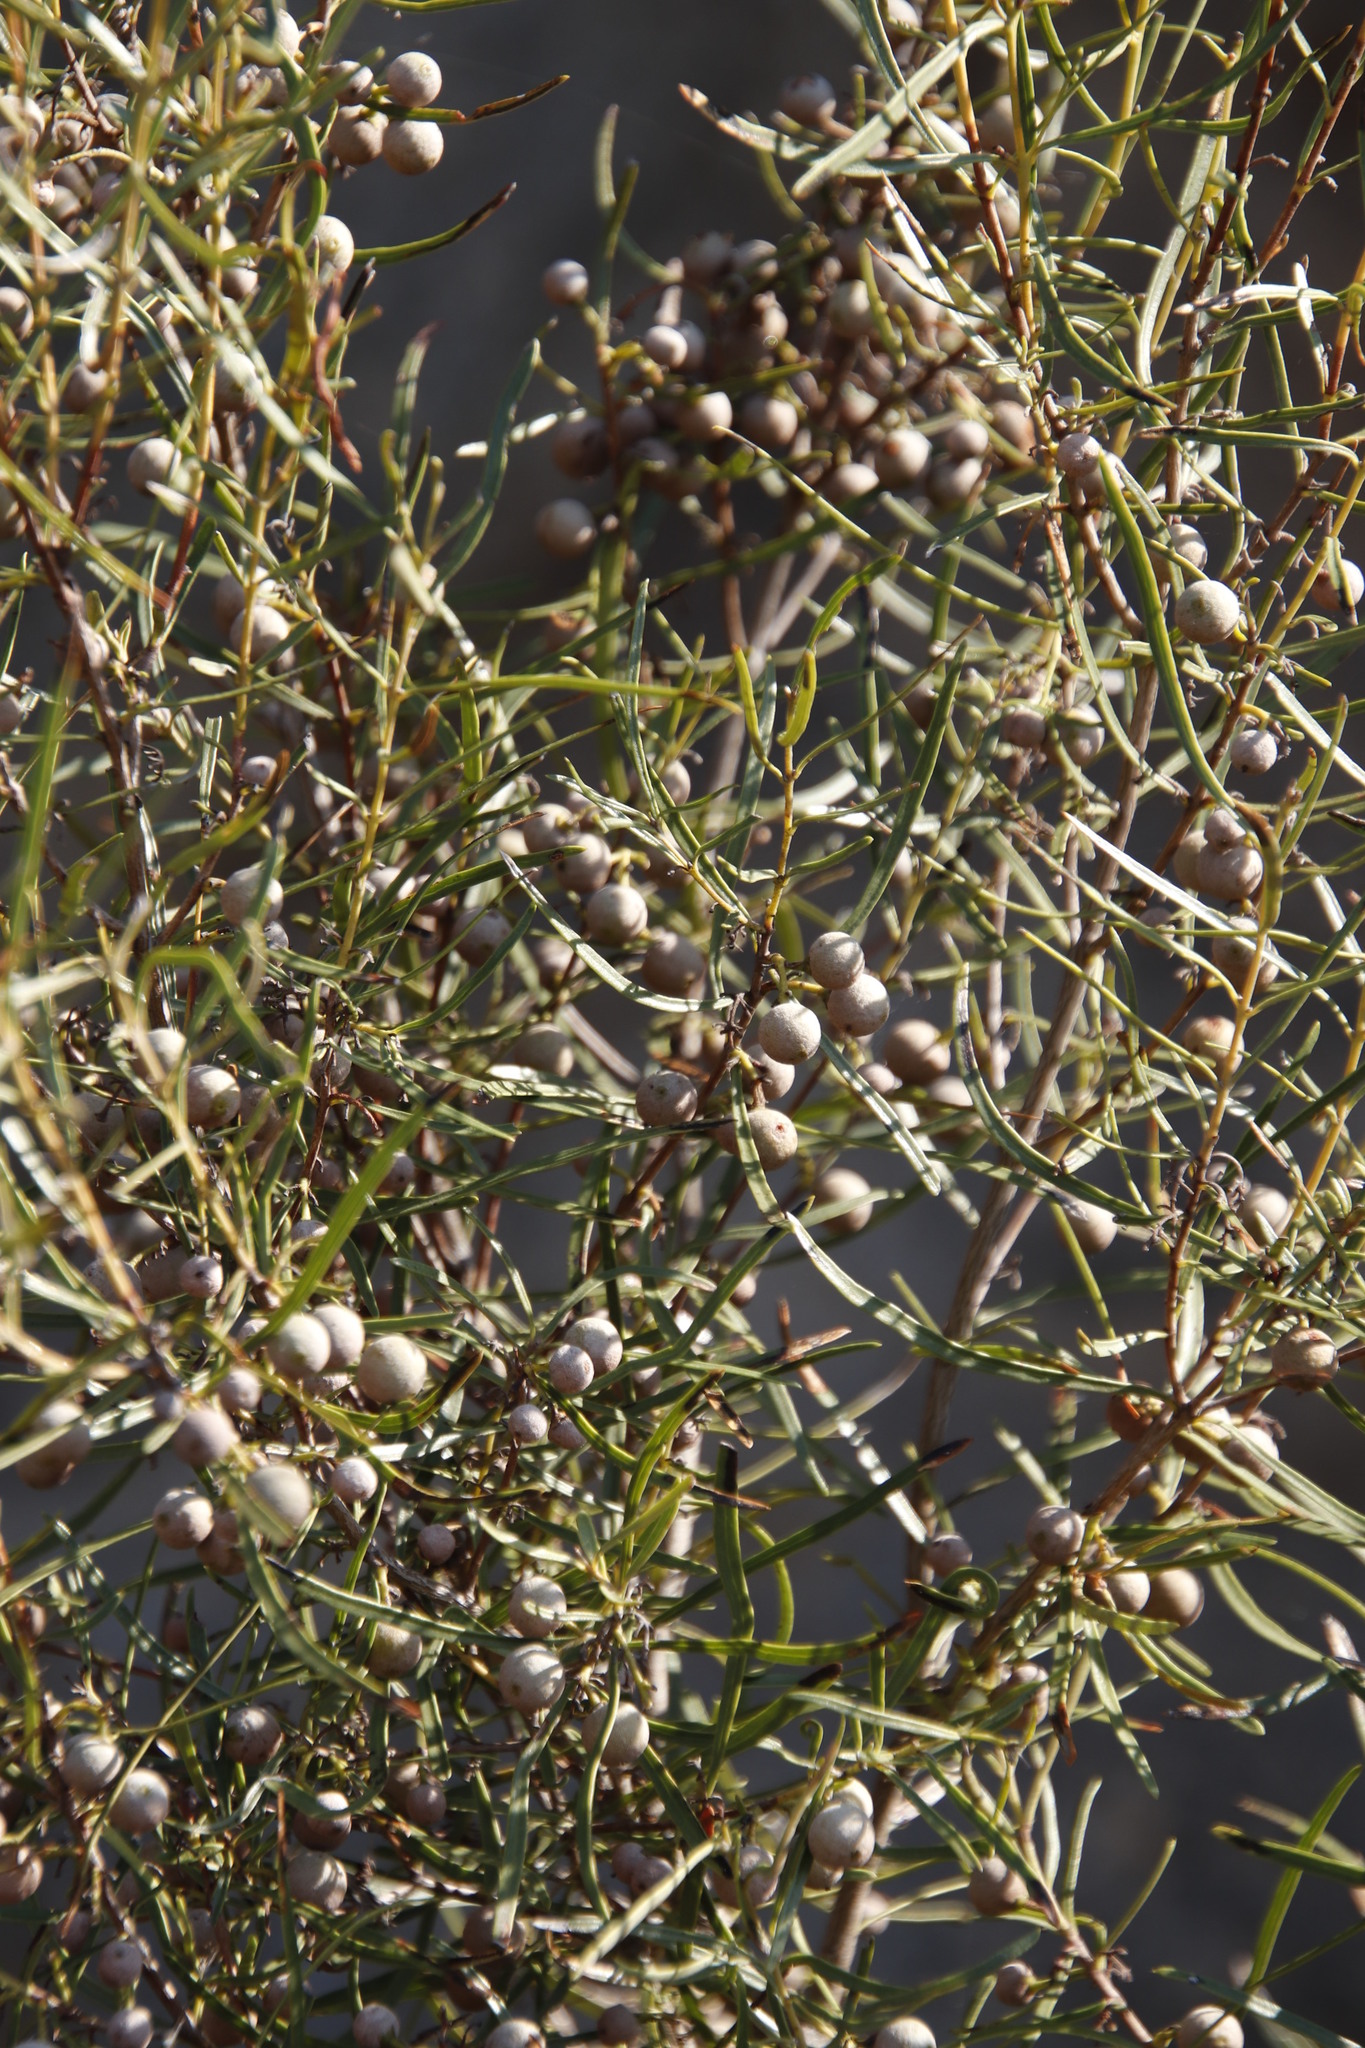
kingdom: Plantae
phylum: Tracheophyta
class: Magnoliopsida
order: Ericales
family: Ebenaceae
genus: Euclea
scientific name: Euclea linearis
